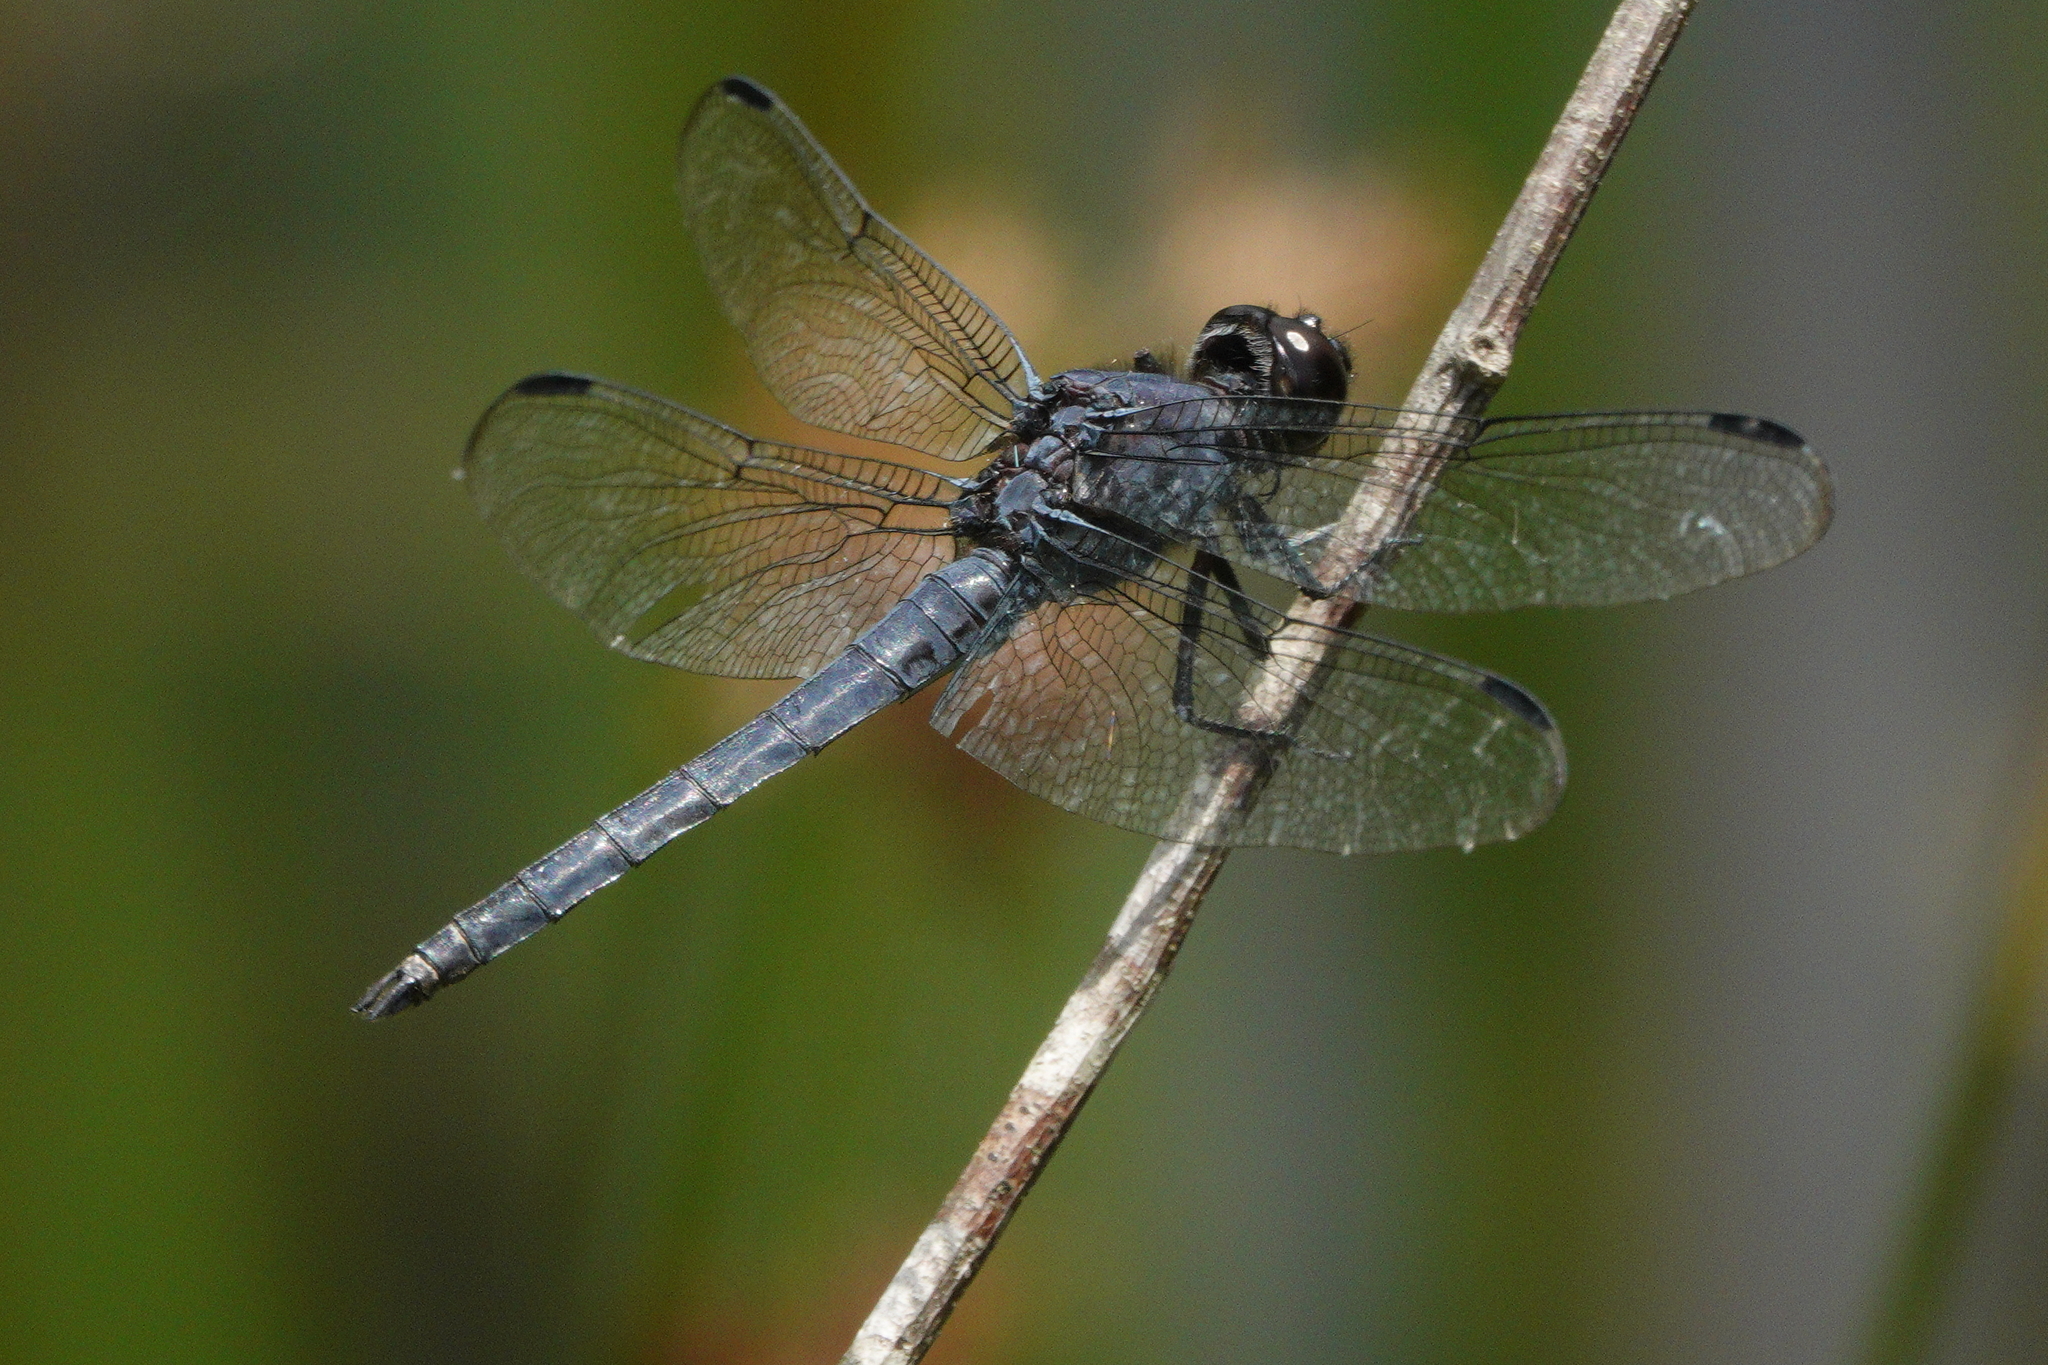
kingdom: Animalia
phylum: Arthropoda
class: Insecta
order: Odonata
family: Libellulidae
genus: Libellula
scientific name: Libellula incesta
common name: Slaty skimmer
